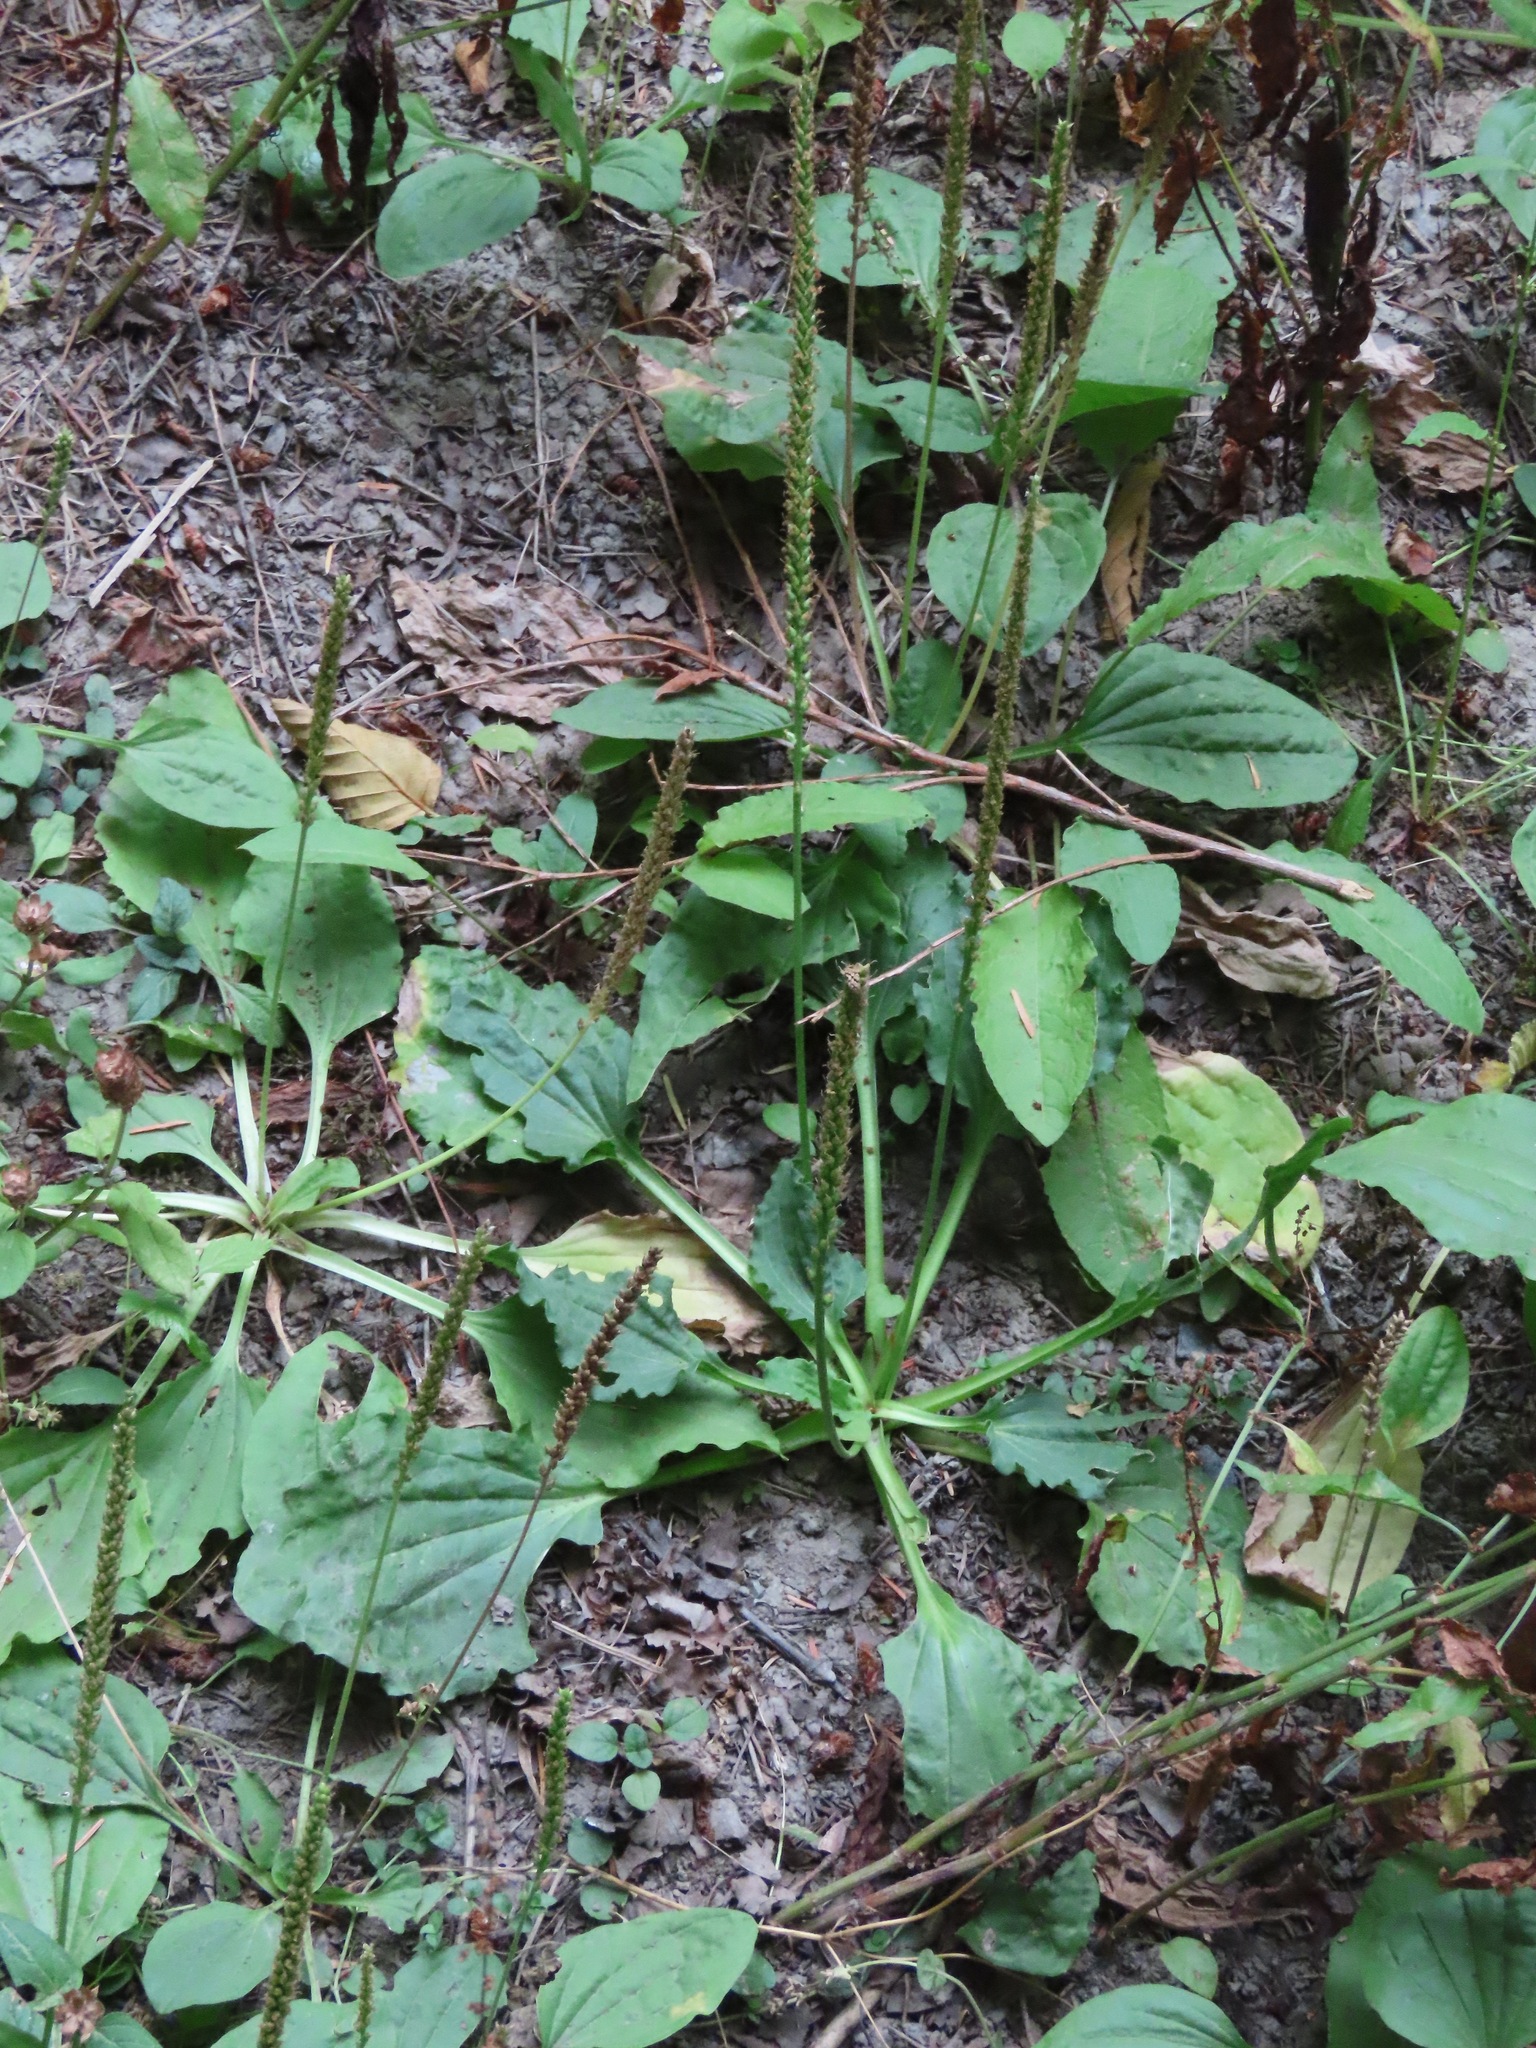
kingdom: Plantae
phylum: Tracheophyta
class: Magnoliopsida
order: Lamiales
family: Plantaginaceae
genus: Plantago
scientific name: Plantago major
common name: Common plantain
